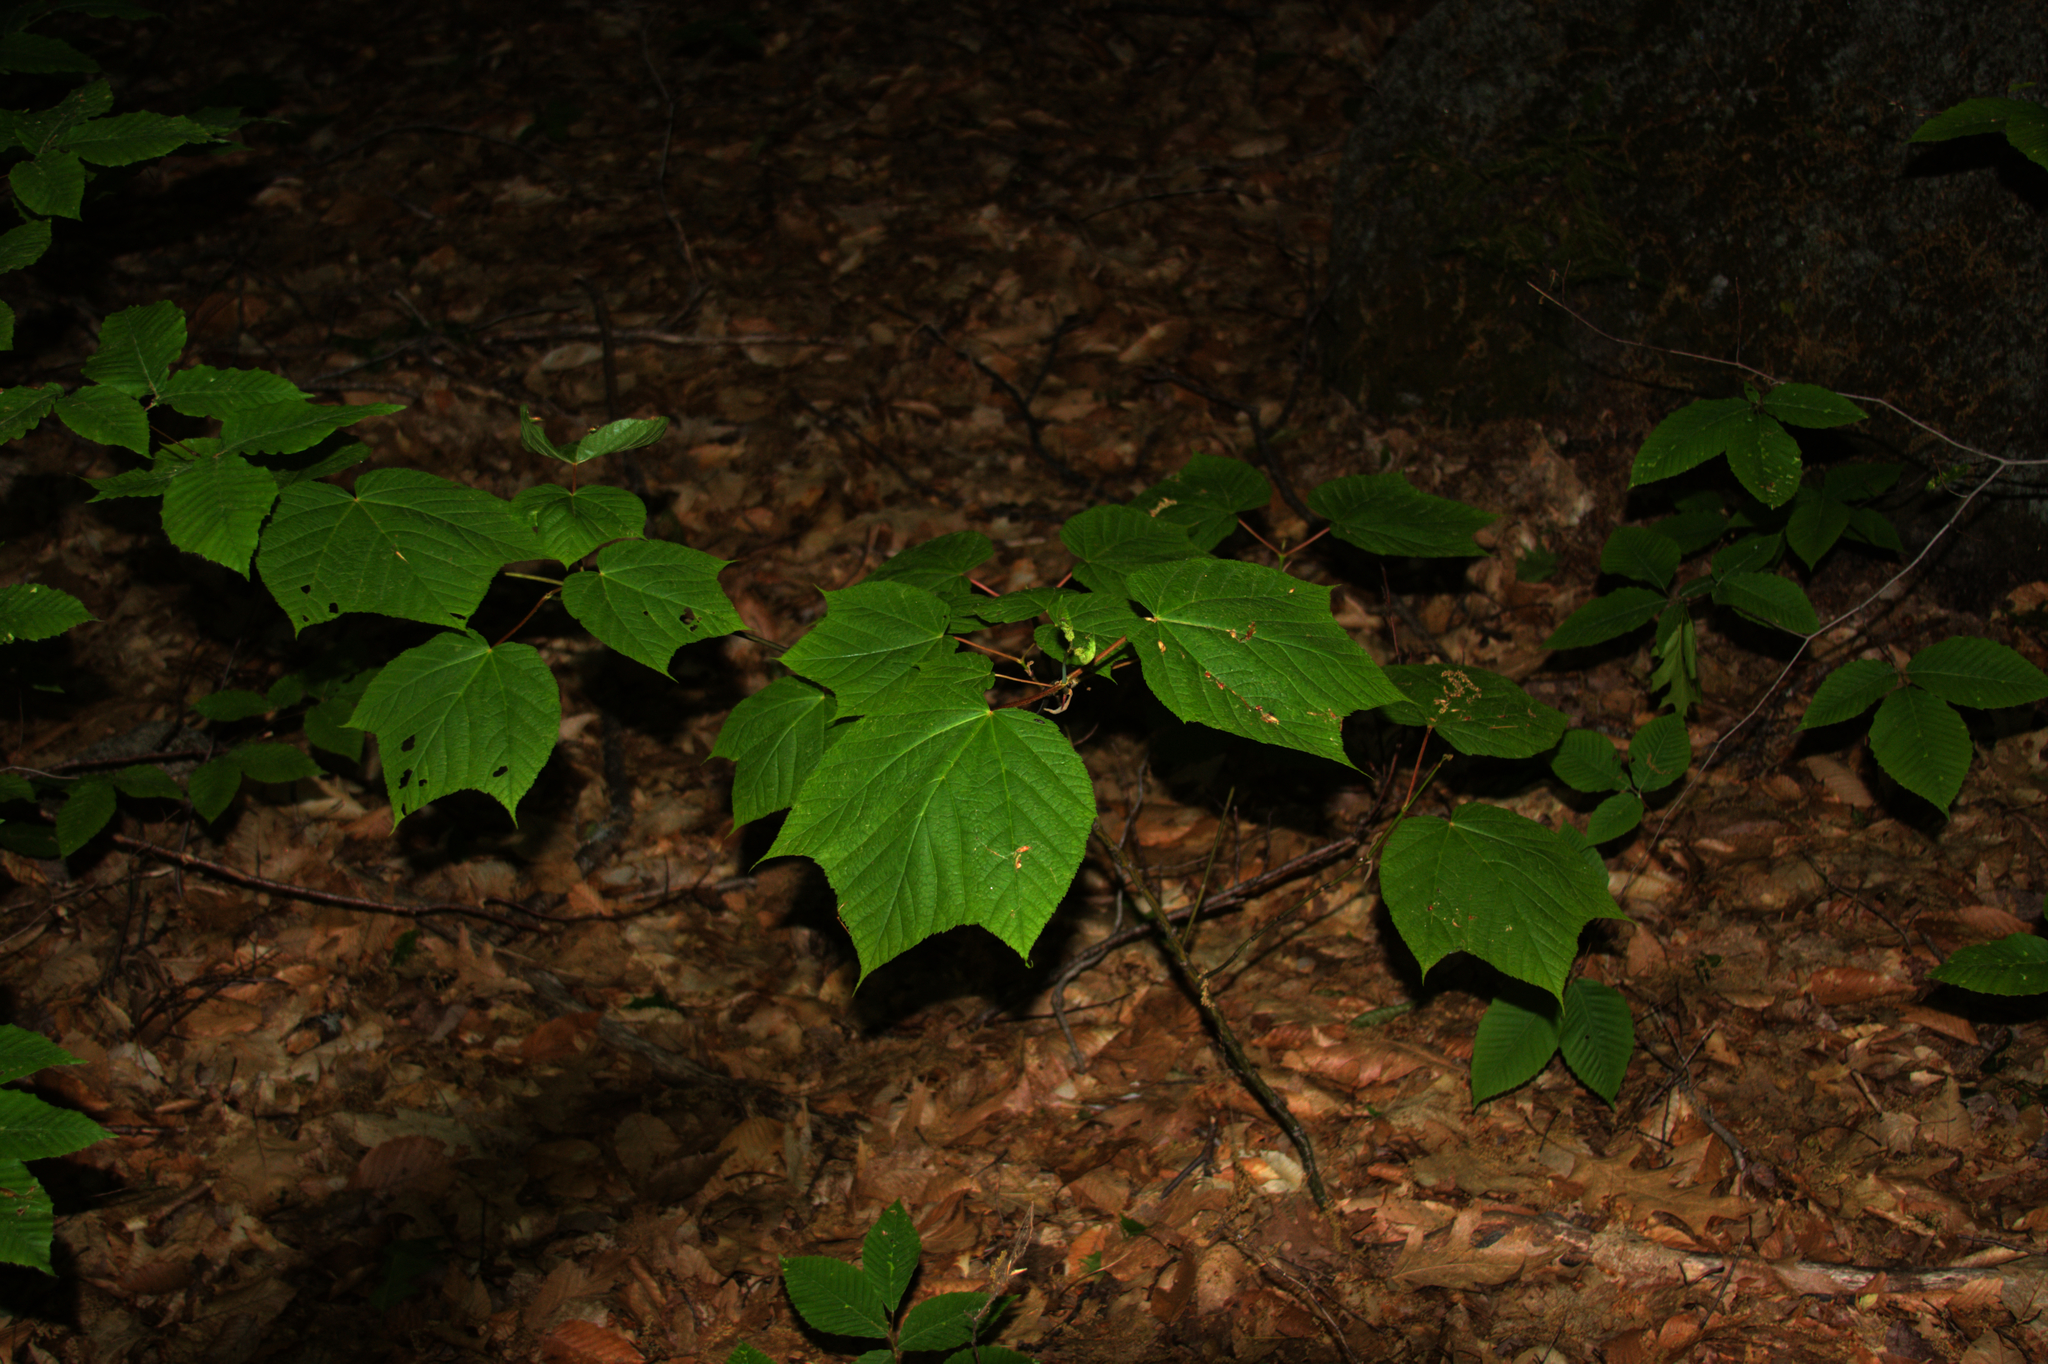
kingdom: Plantae
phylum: Tracheophyta
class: Magnoliopsida
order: Sapindales
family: Sapindaceae
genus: Acer
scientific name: Acer pensylvanicum
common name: Moosewood
